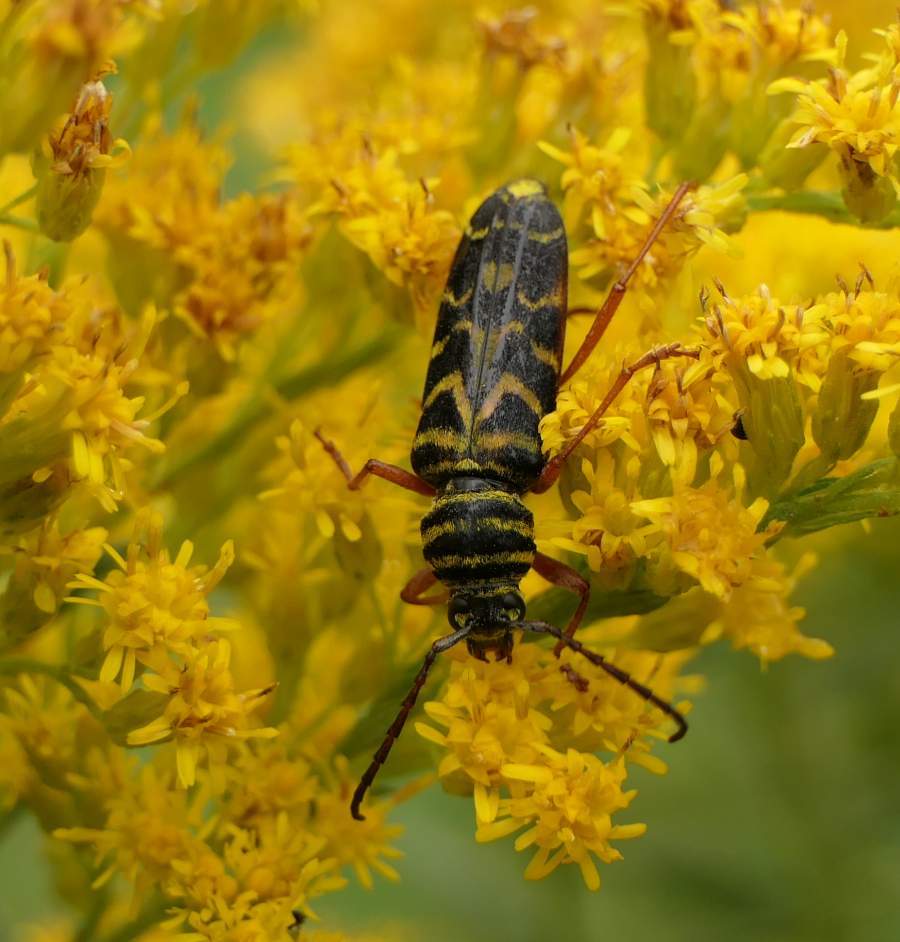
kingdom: Animalia
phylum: Arthropoda
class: Insecta
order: Coleoptera
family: Cerambycidae
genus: Megacyllene
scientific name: Megacyllene robiniae
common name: Locust borer
